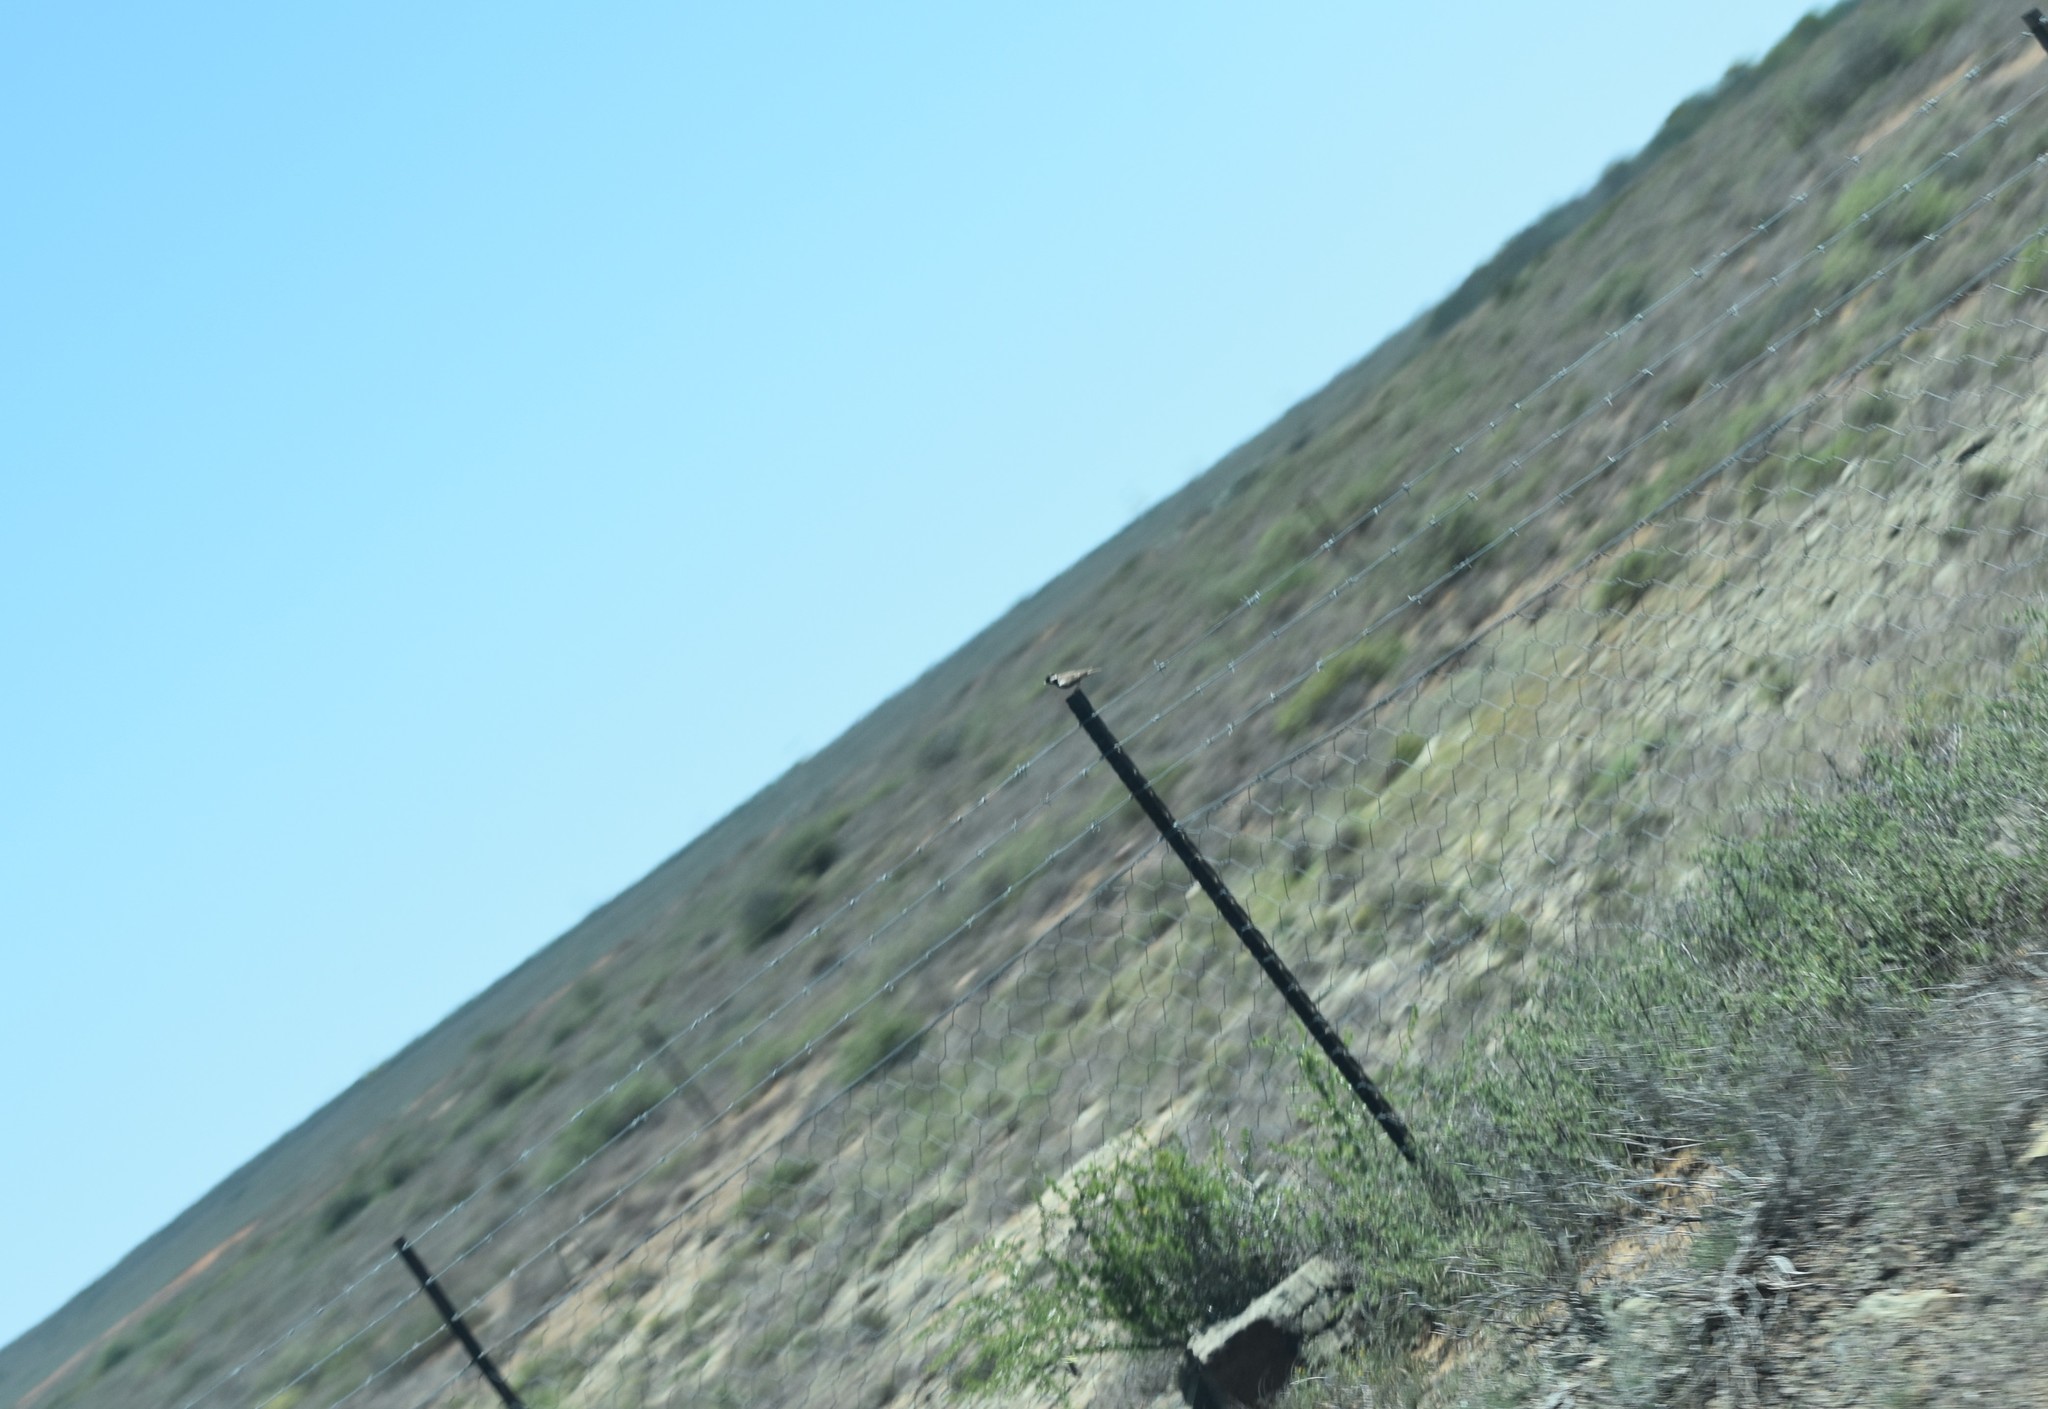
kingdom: Animalia
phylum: Chordata
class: Aves
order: Passeriformes
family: Alaudidae
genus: Eremopterix
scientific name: Eremopterix verticalis
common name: Grey-backed sparrow-lark
